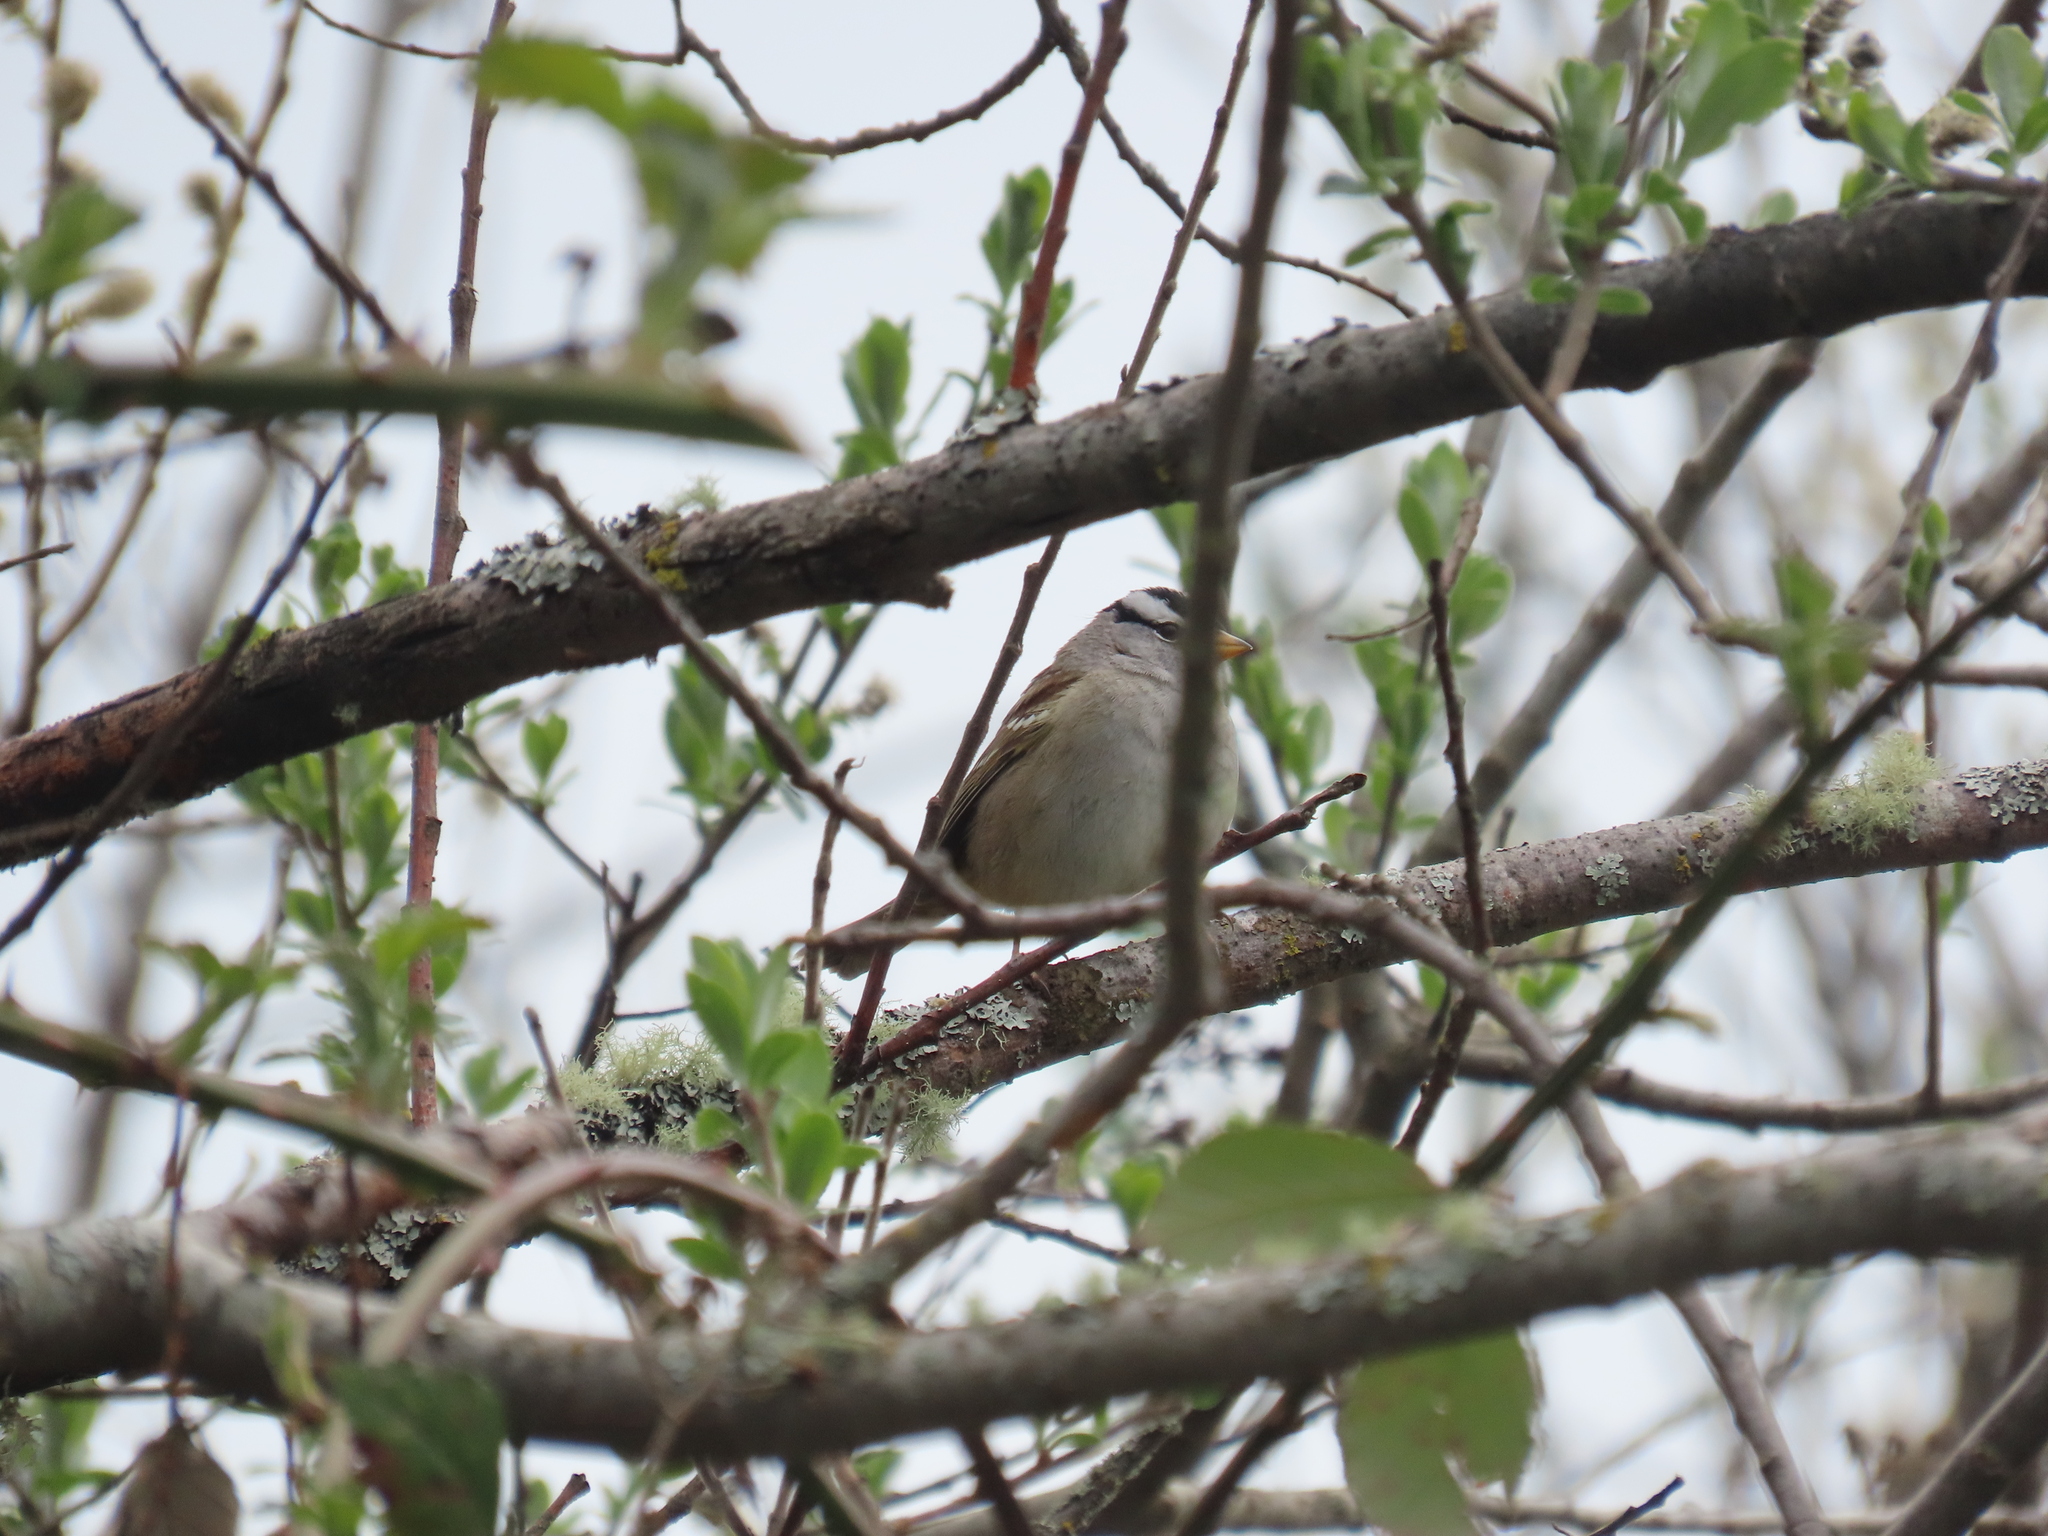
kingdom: Animalia
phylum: Chordata
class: Aves
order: Passeriformes
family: Passerellidae
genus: Zonotrichia
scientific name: Zonotrichia leucophrys
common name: White-crowned sparrow
